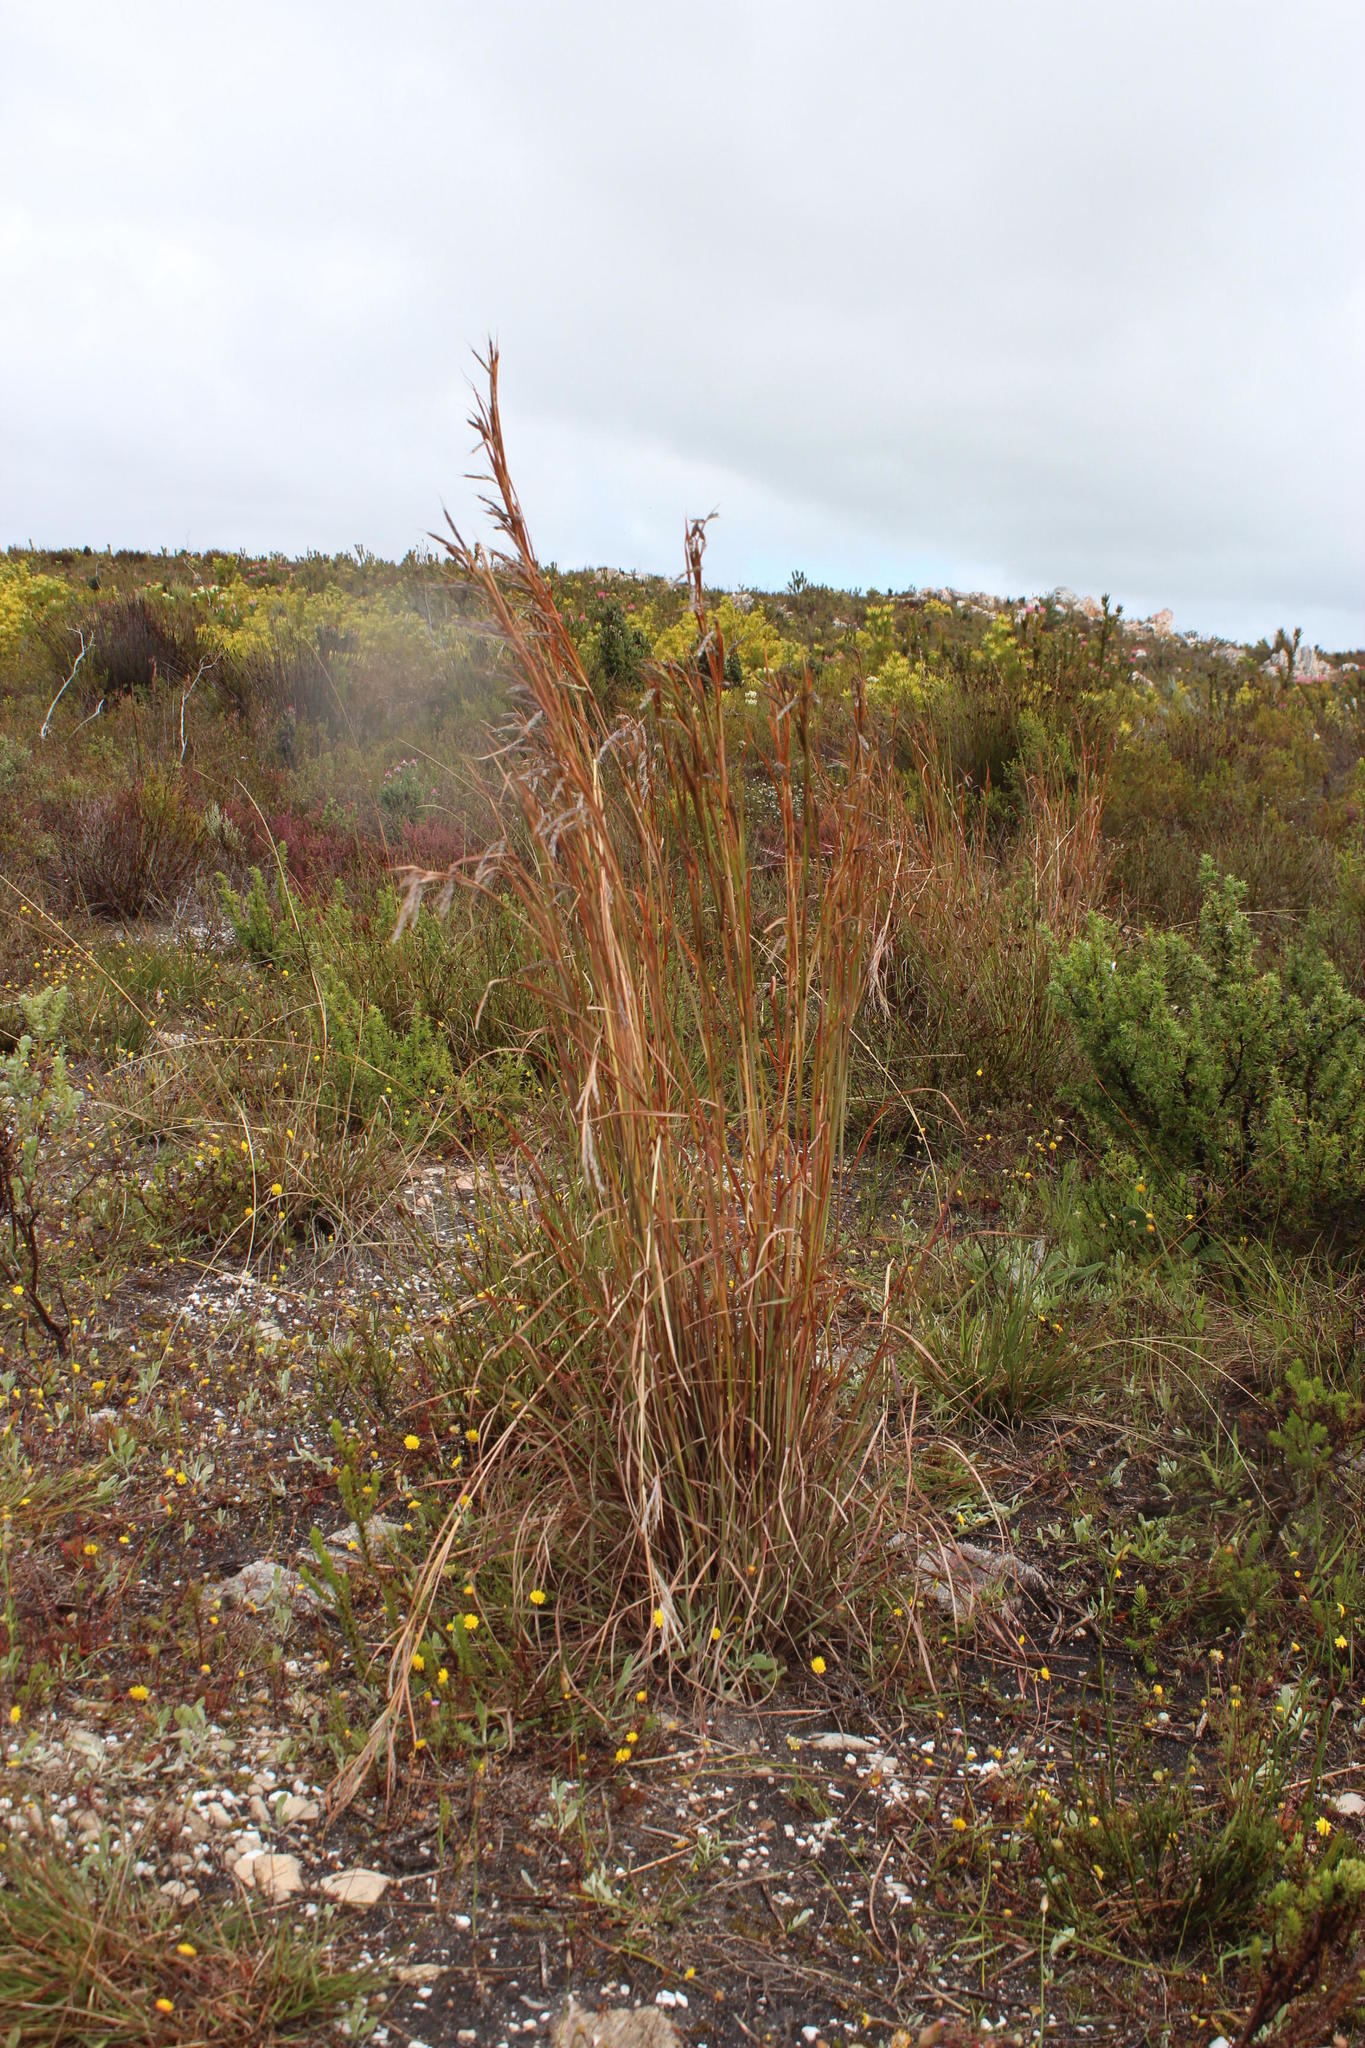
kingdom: Plantae
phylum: Tracheophyta
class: Liliopsida
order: Poales
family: Poaceae
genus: Hyparrhenia
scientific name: Hyparrhenia hirta
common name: Thatching grass
